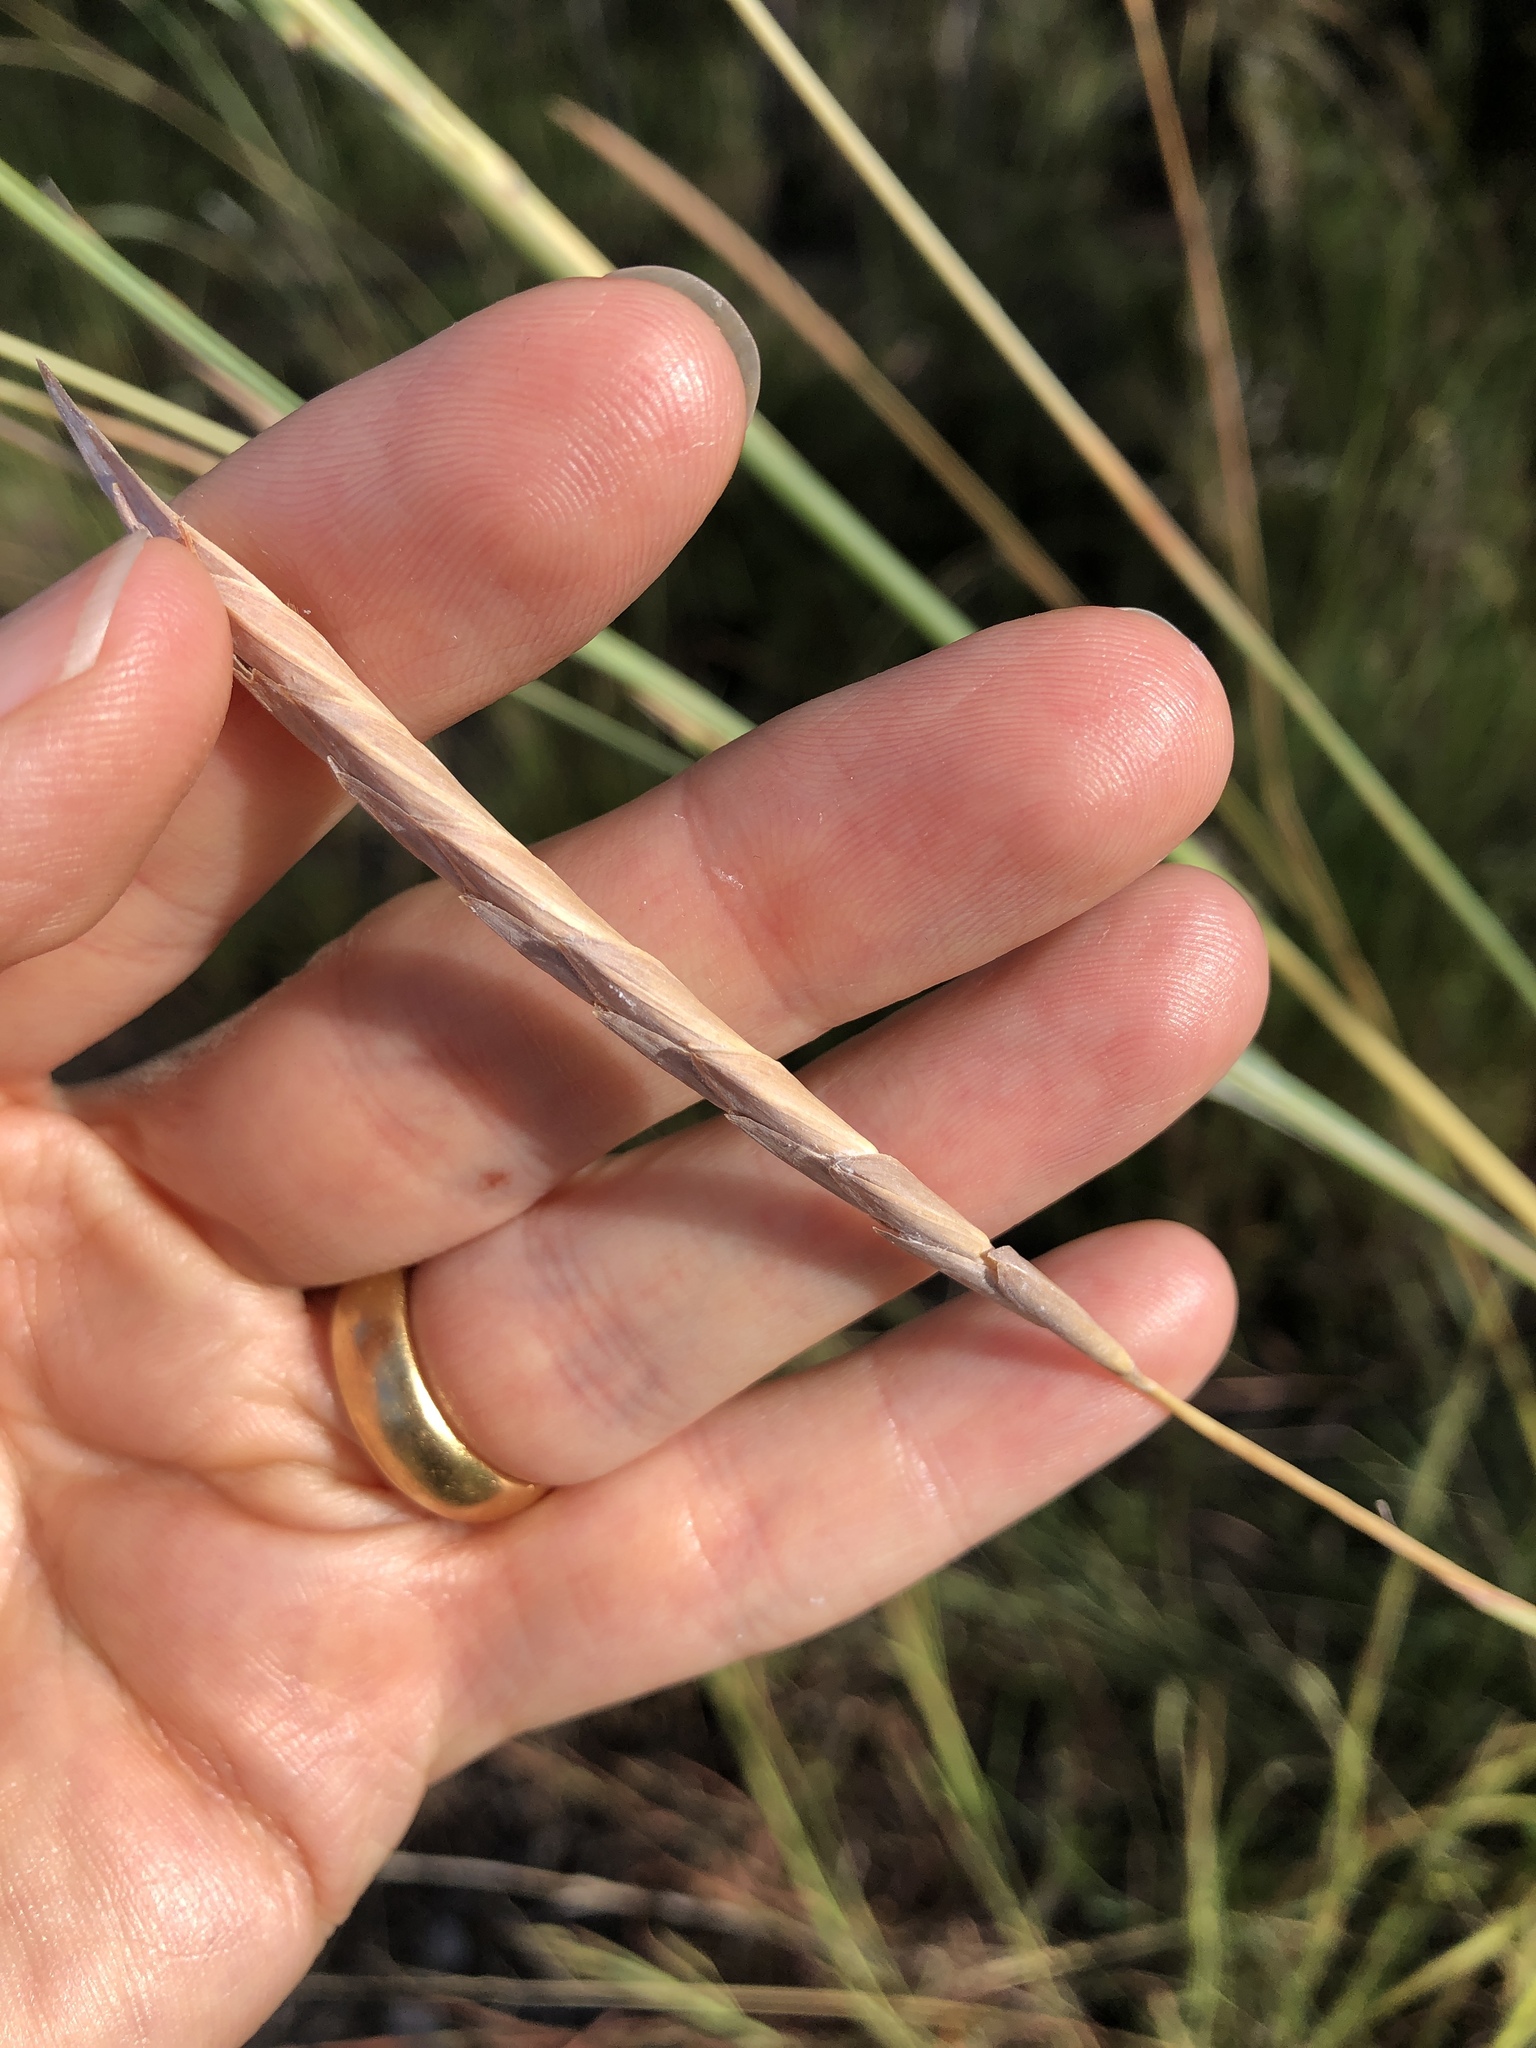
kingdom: Plantae
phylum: Tracheophyta
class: Liliopsida
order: Poales
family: Poaceae
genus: Heteropogon
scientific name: Heteropogon triticeus
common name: Sugar grass
